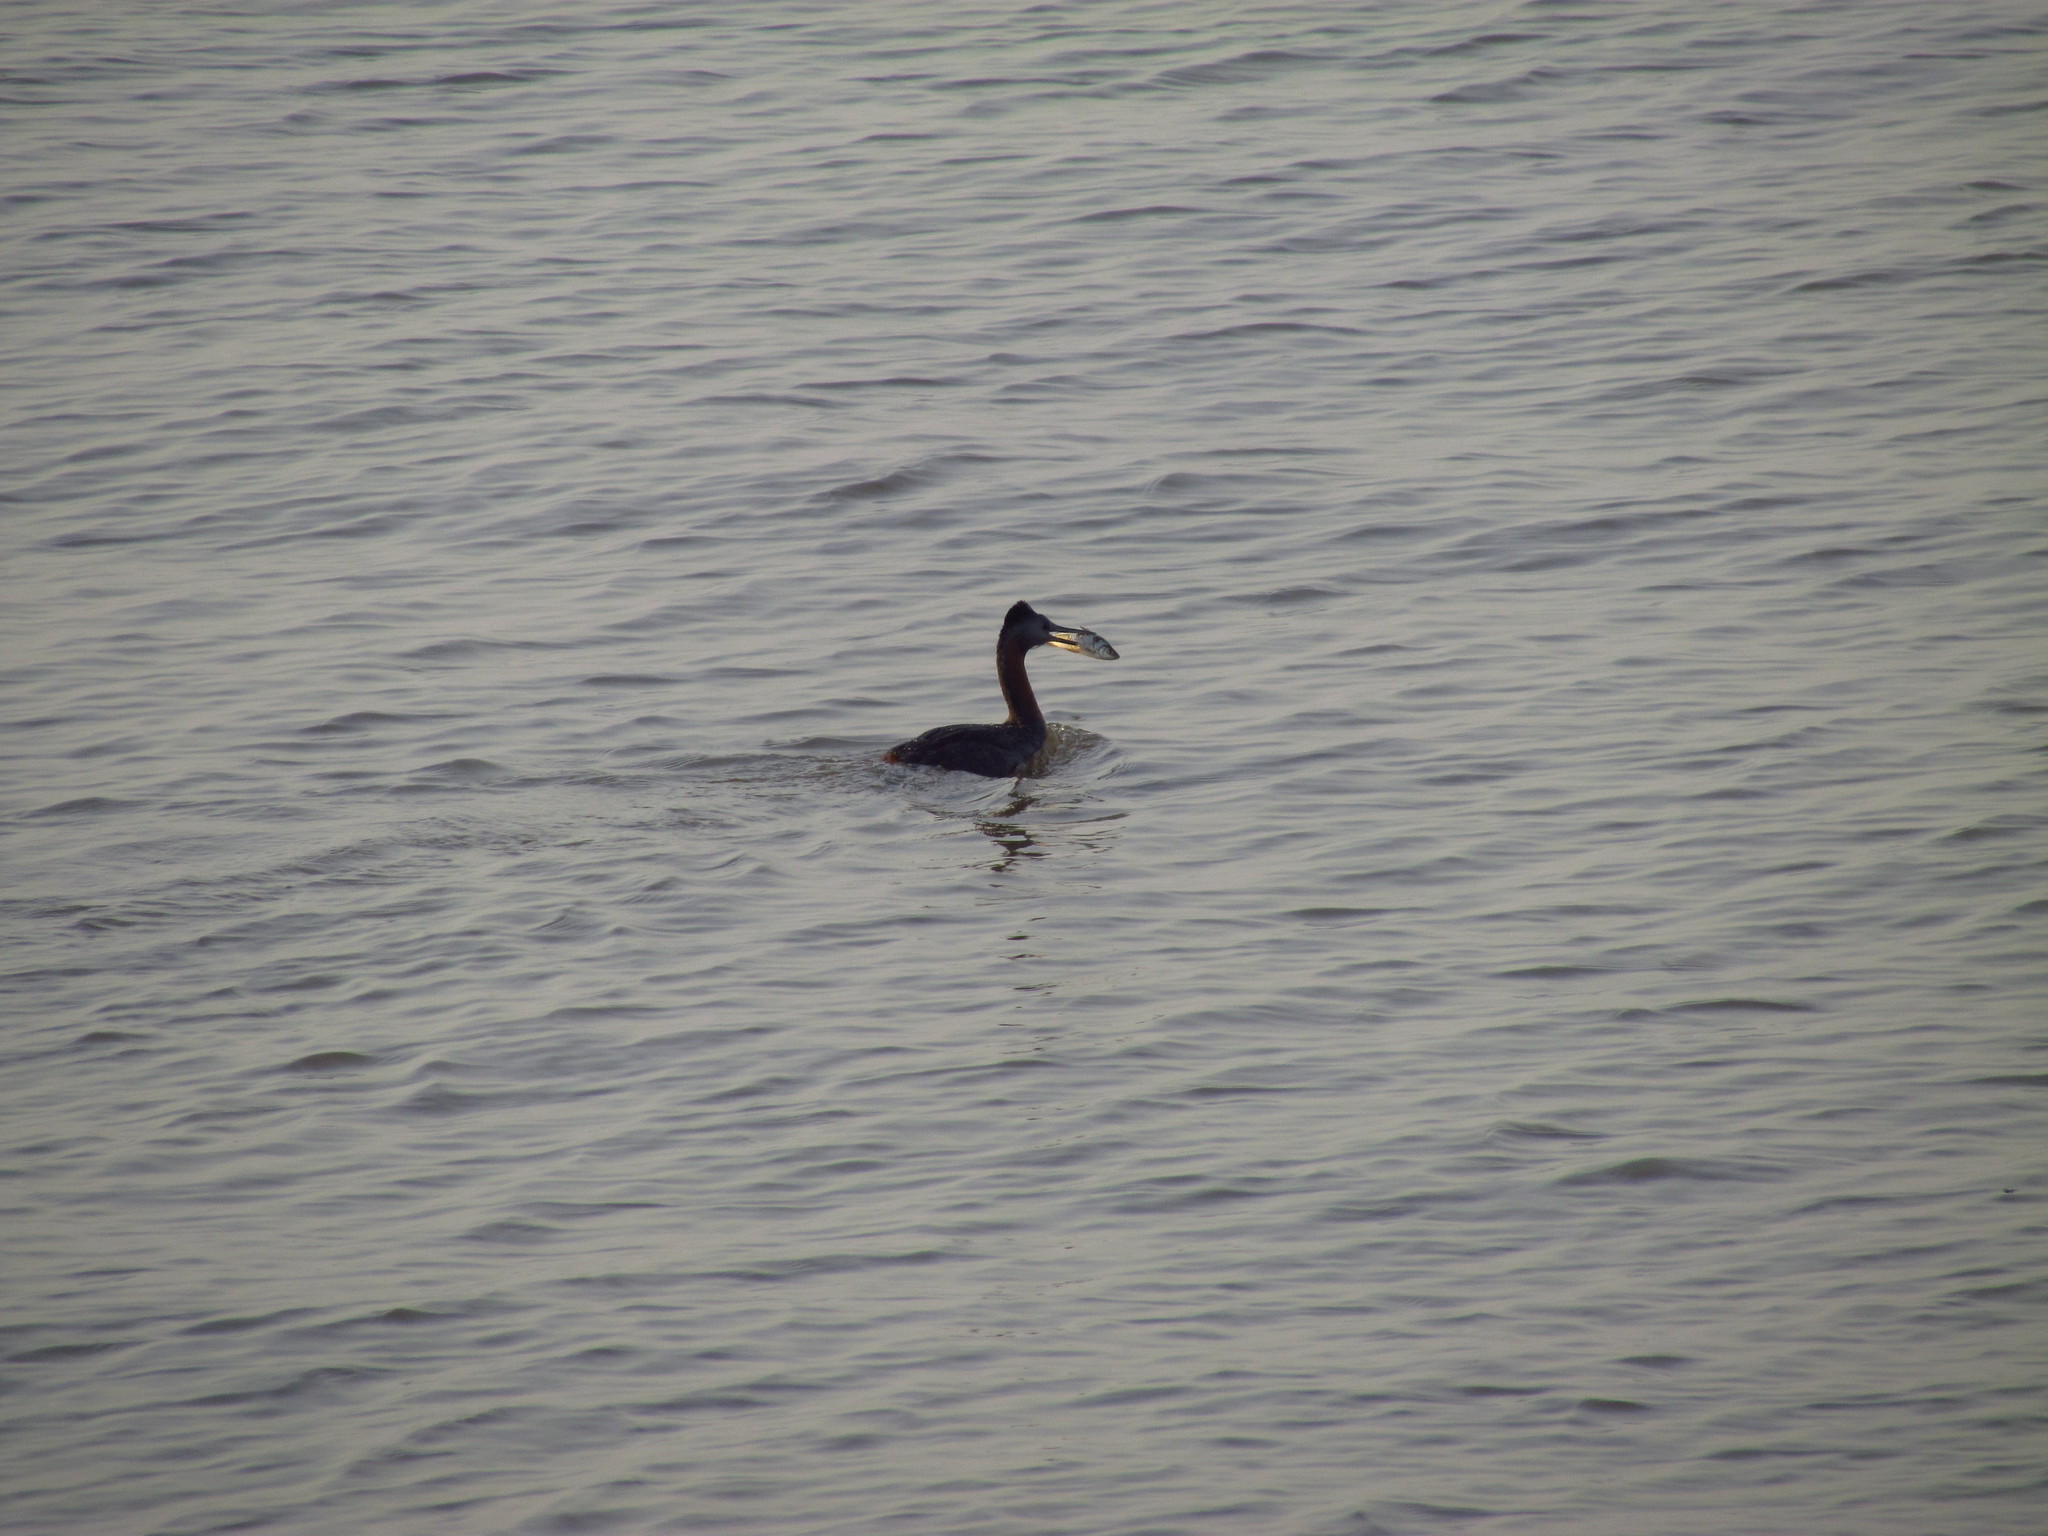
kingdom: Animalia
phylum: Chordata
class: Aves
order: Podicipediformes
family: Podicipedidae
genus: Podiceps
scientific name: Podiceps major
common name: Great grebe
